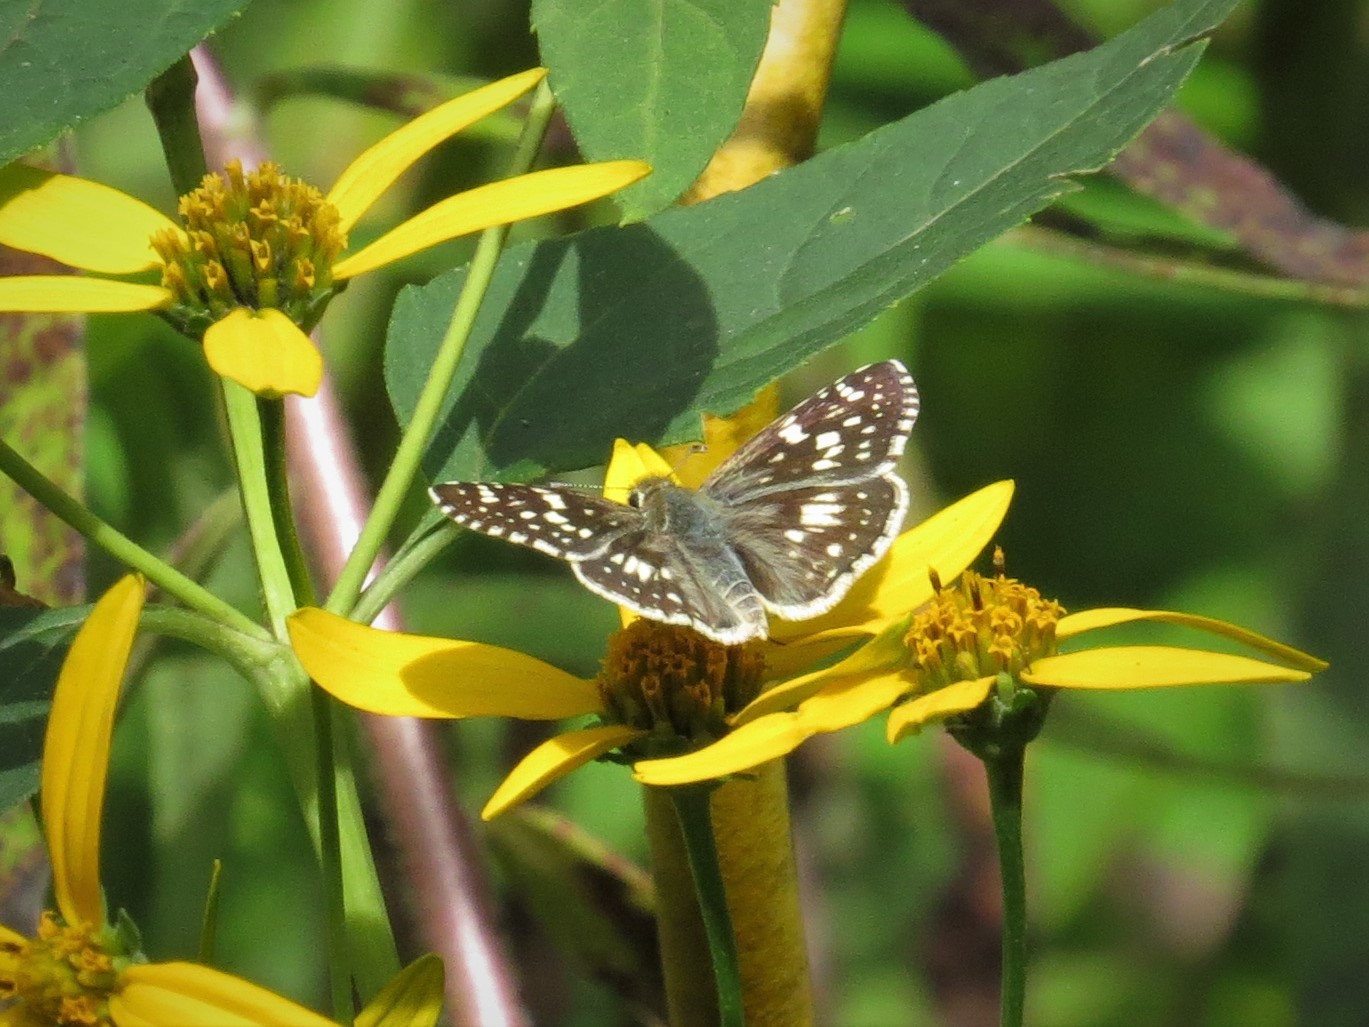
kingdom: Animalia
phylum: Arthropoda
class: Insecta
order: Lepidoptera
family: Hesperiidae
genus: Burnsius
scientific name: Burnsius communis
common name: Common checkered-skipper
